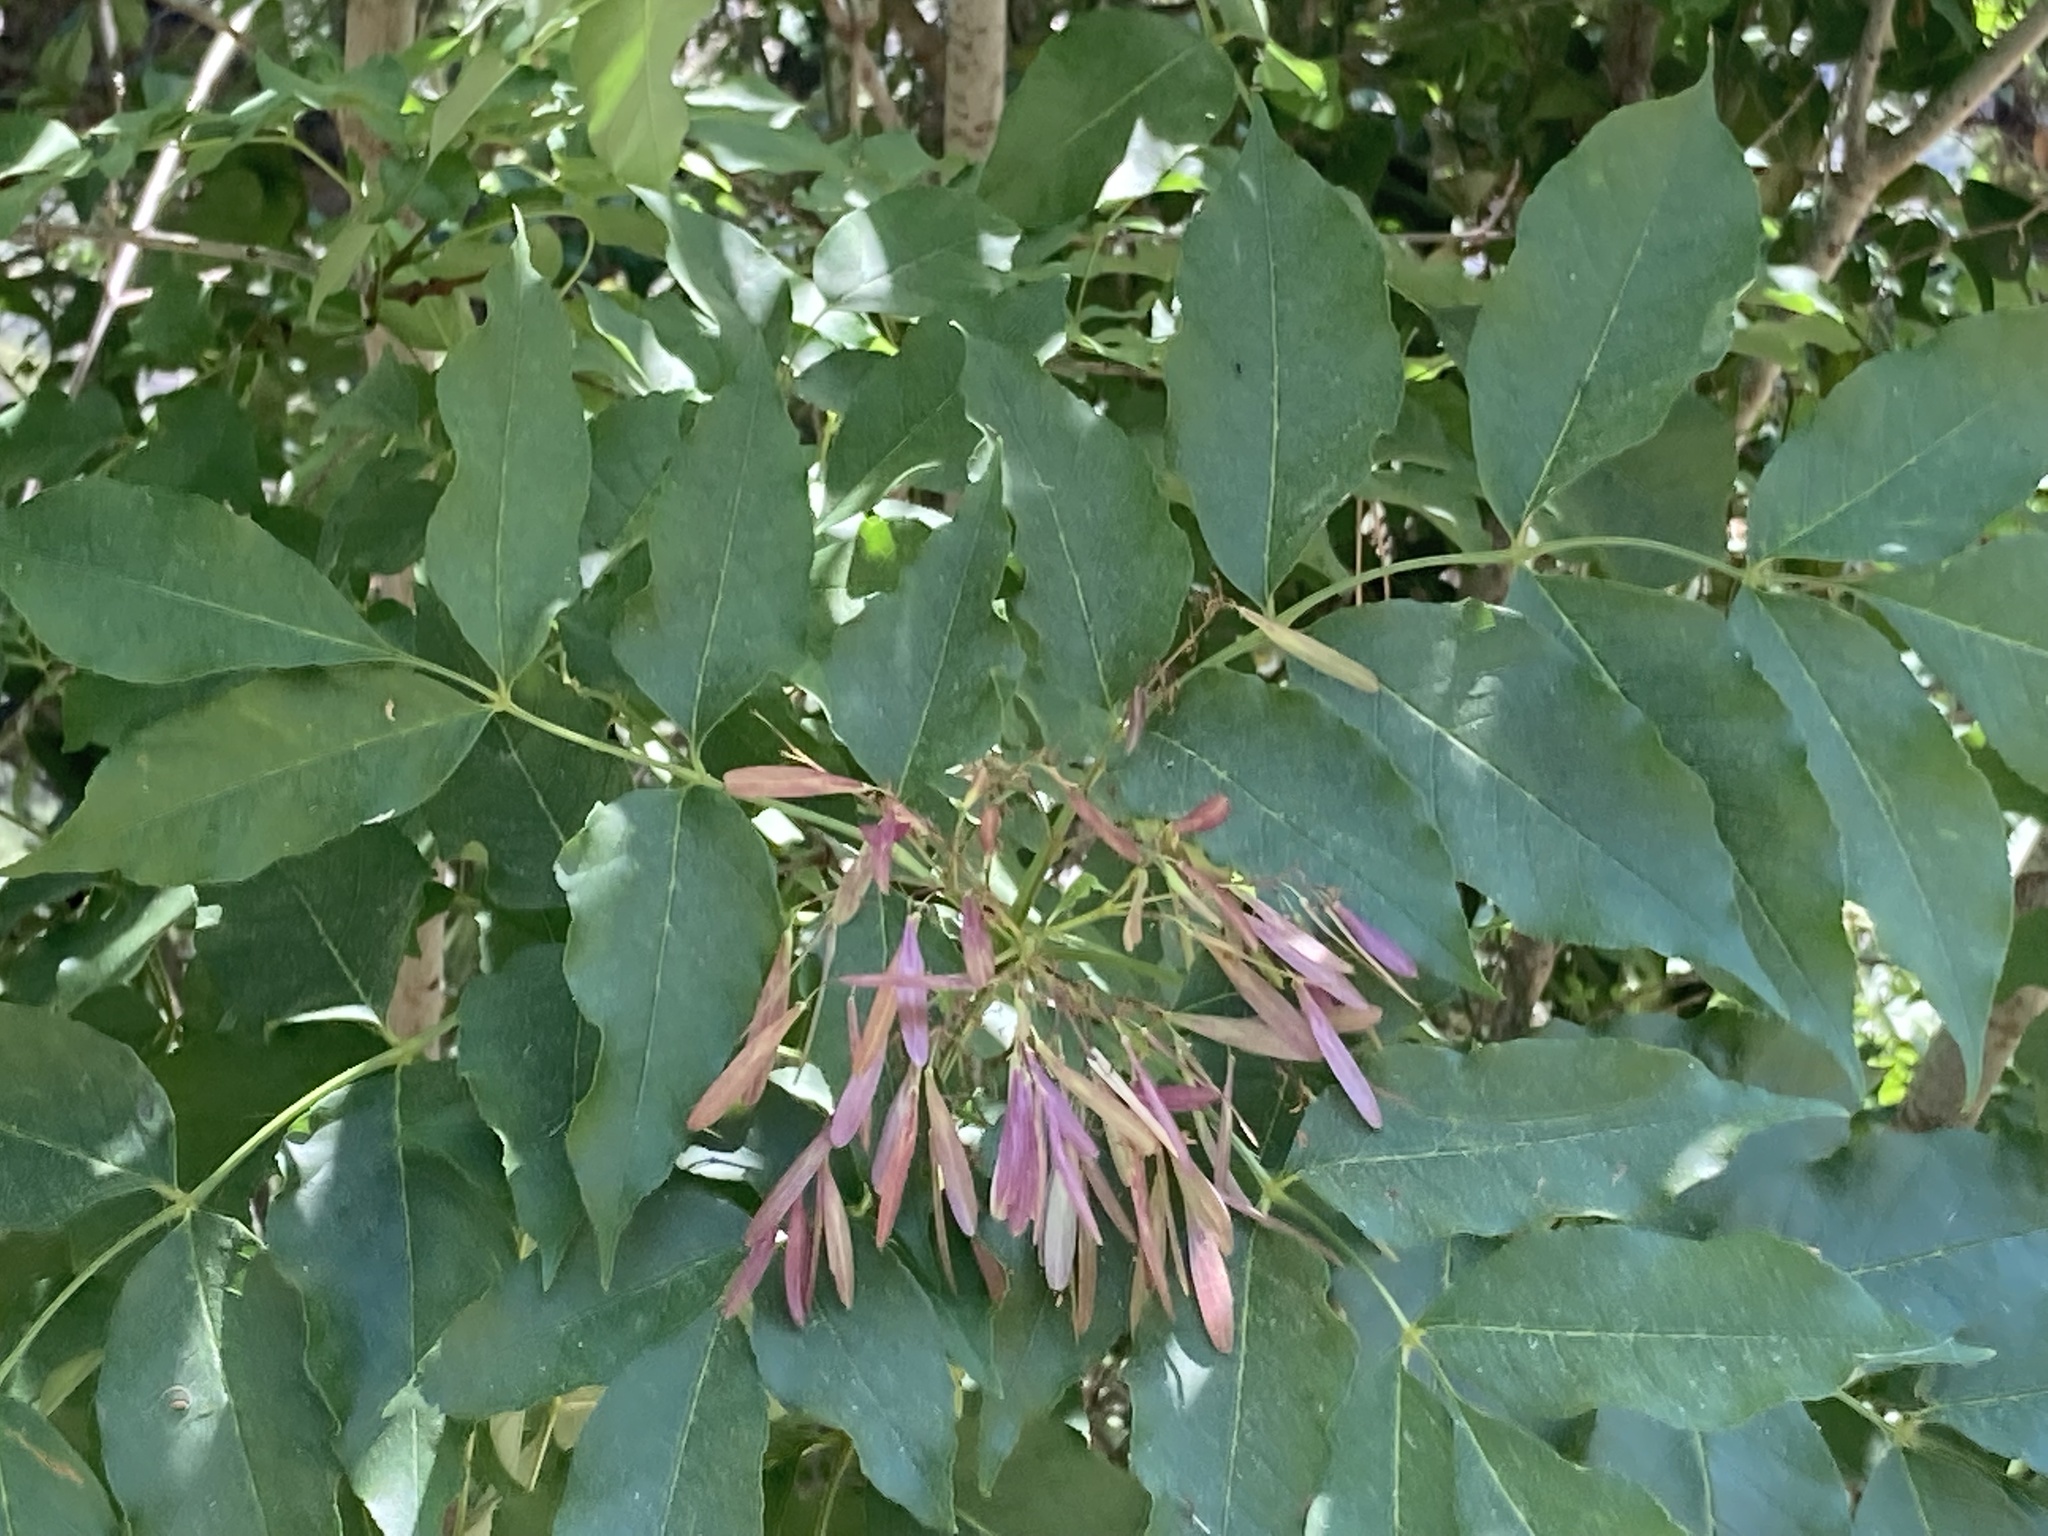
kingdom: Plantae
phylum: Tracheophyta
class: Magnoliopsida
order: Lamiales
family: Oleaceae
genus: Fraxinus
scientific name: Fraxinus ornus
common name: Manna ash
